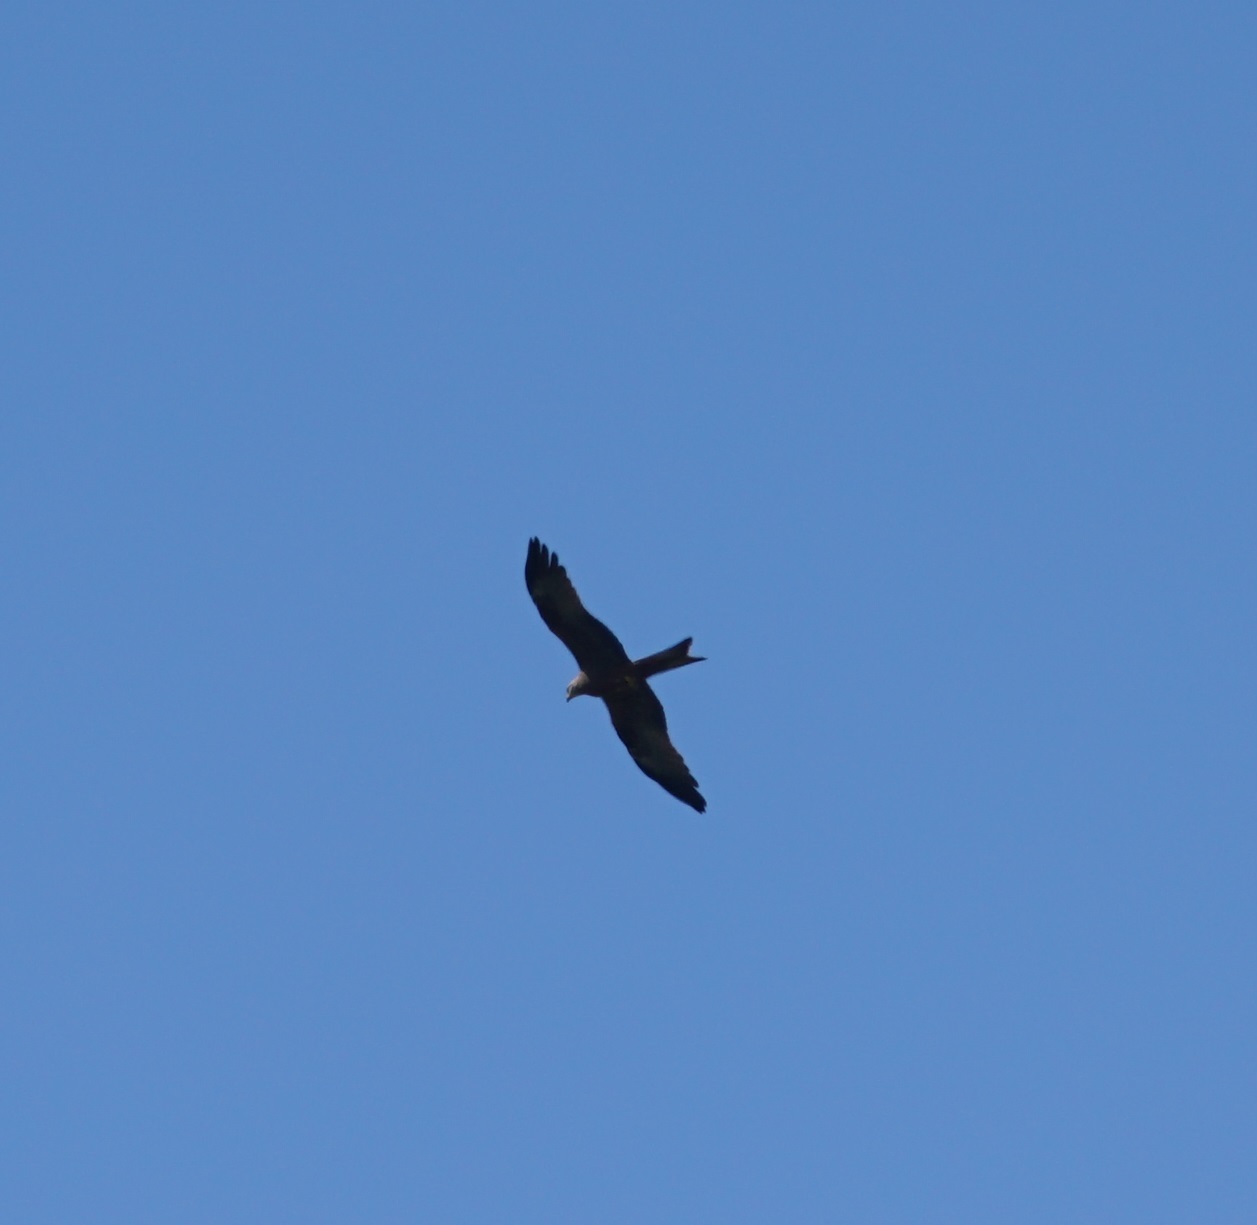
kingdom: Animalia
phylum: Chordata
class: Aves
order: Accipitriformes
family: Accipitridae
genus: Milvus
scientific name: Milvus migrans
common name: Black kite
